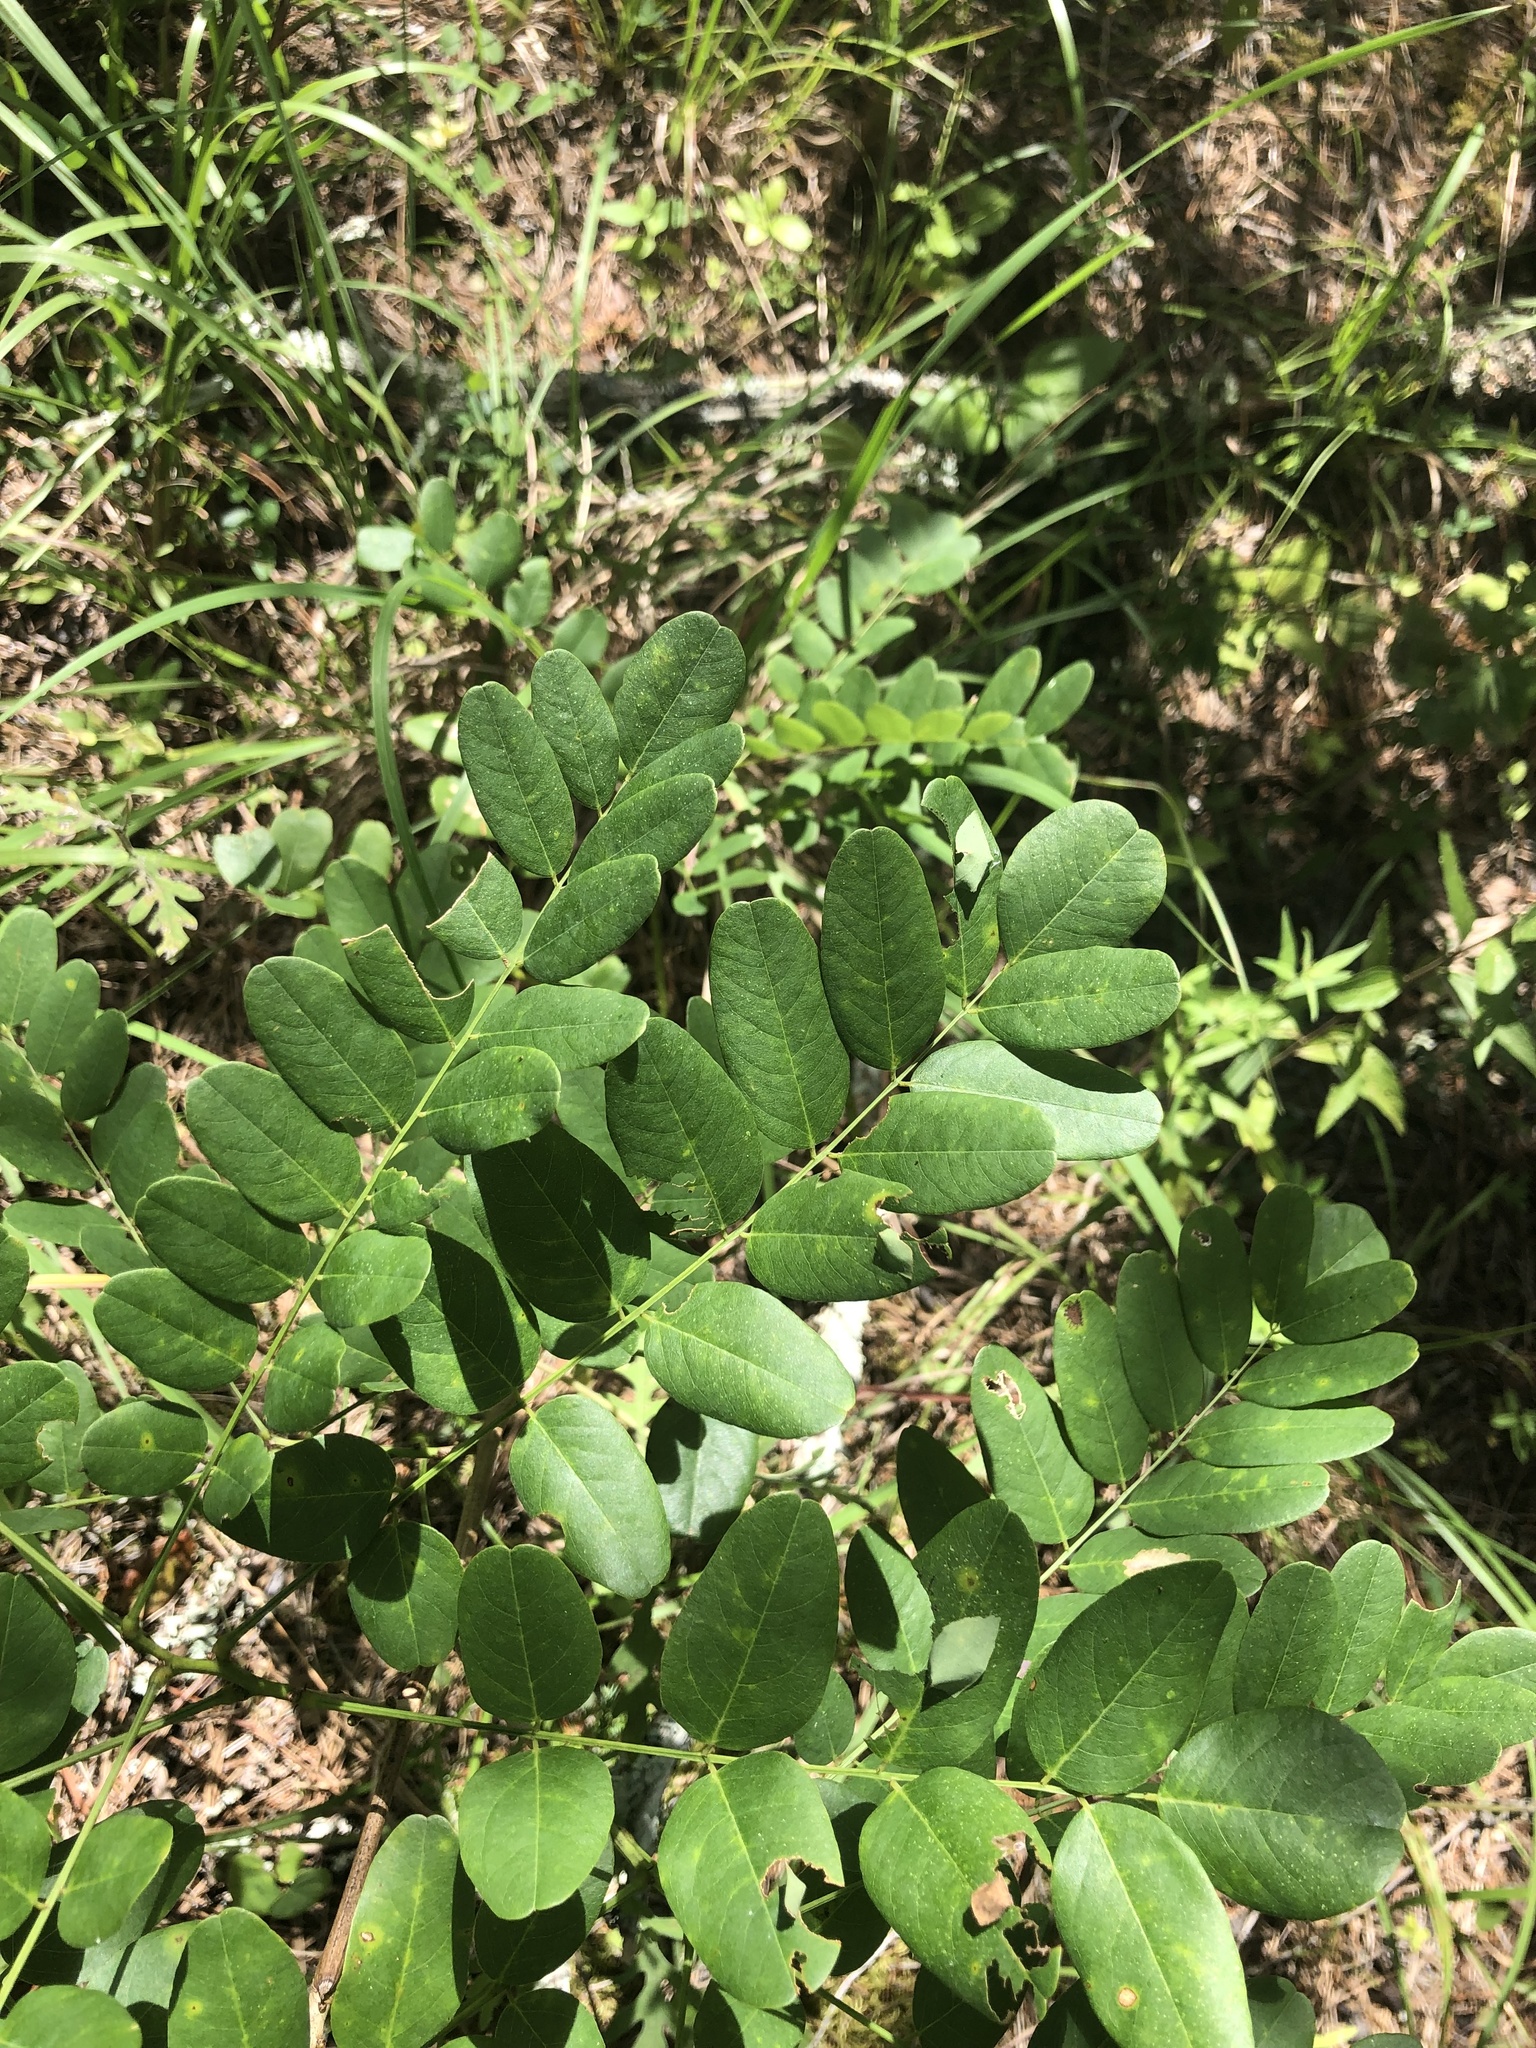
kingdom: Plantae
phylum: Tracheophyta
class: Magnoliopsida
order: Fabales
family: Fabaceae
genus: Amorpha
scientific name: Amorpha nitens
